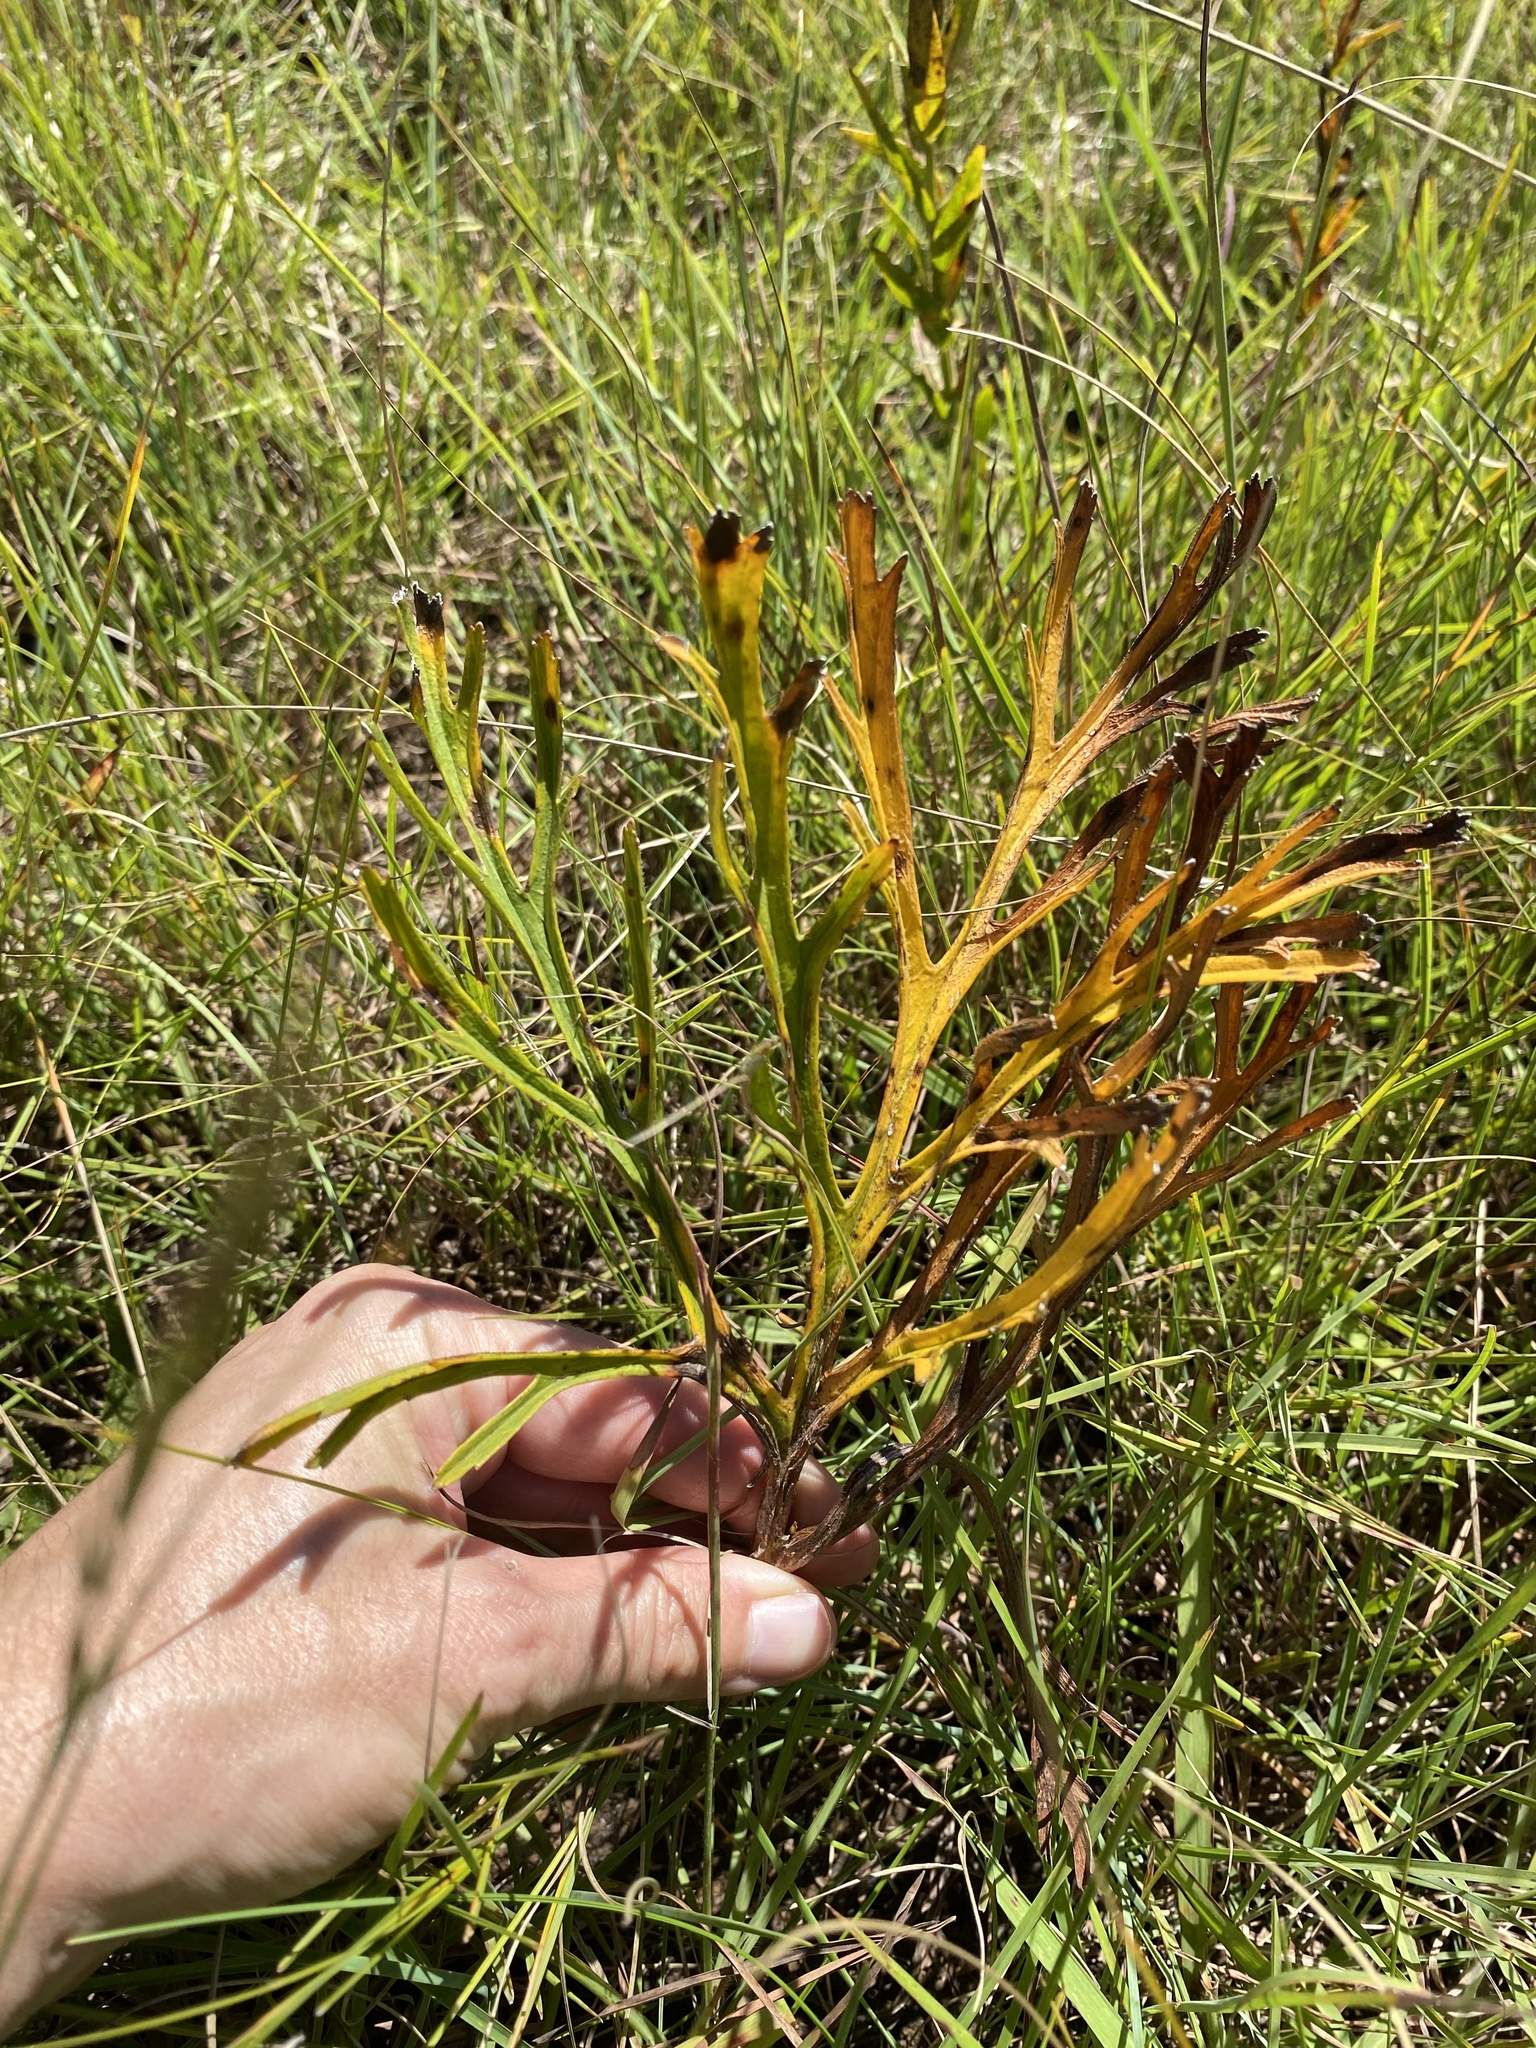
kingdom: Plantae
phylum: Tracheophyta
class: Magnoliopsida
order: Geraniales
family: Geraniaceae
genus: Pelargonium
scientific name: Pelargonium luridum
